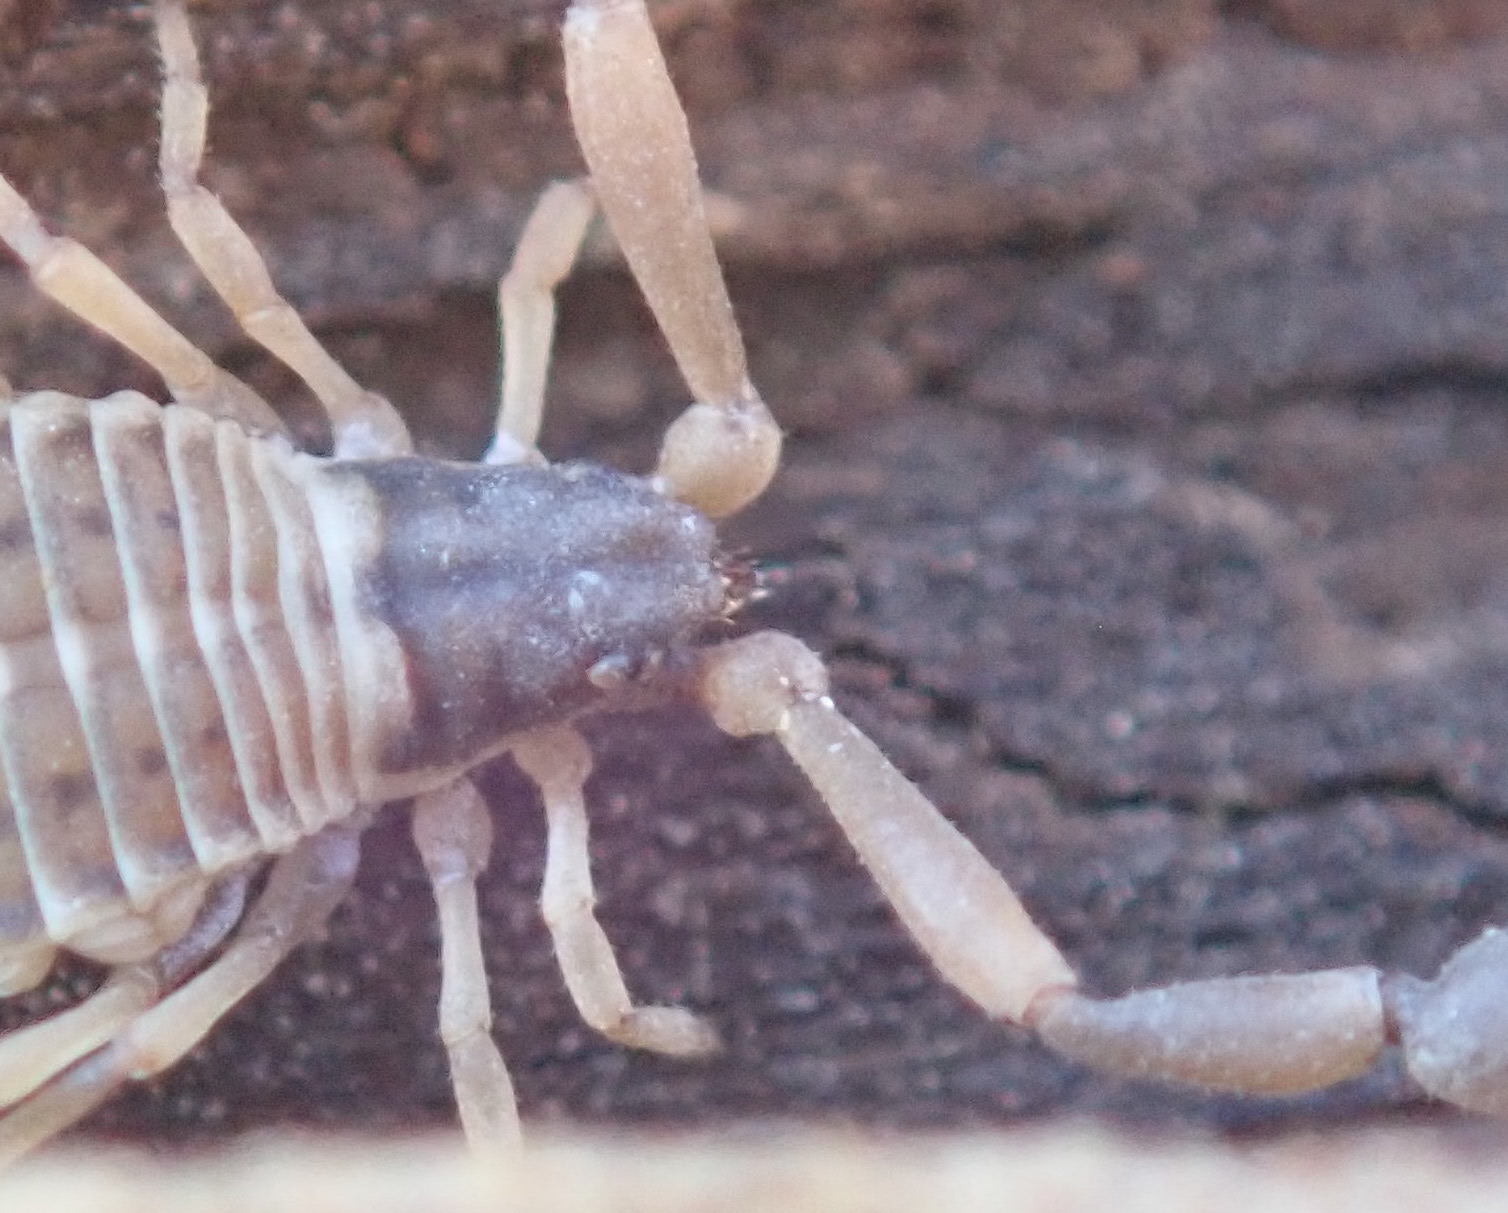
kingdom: Animalia
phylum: Arthropoda
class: Arachnida
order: Pseudoscorpiones
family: Garypidae
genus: Anchigarypus
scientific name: Anchigarypus californicus
